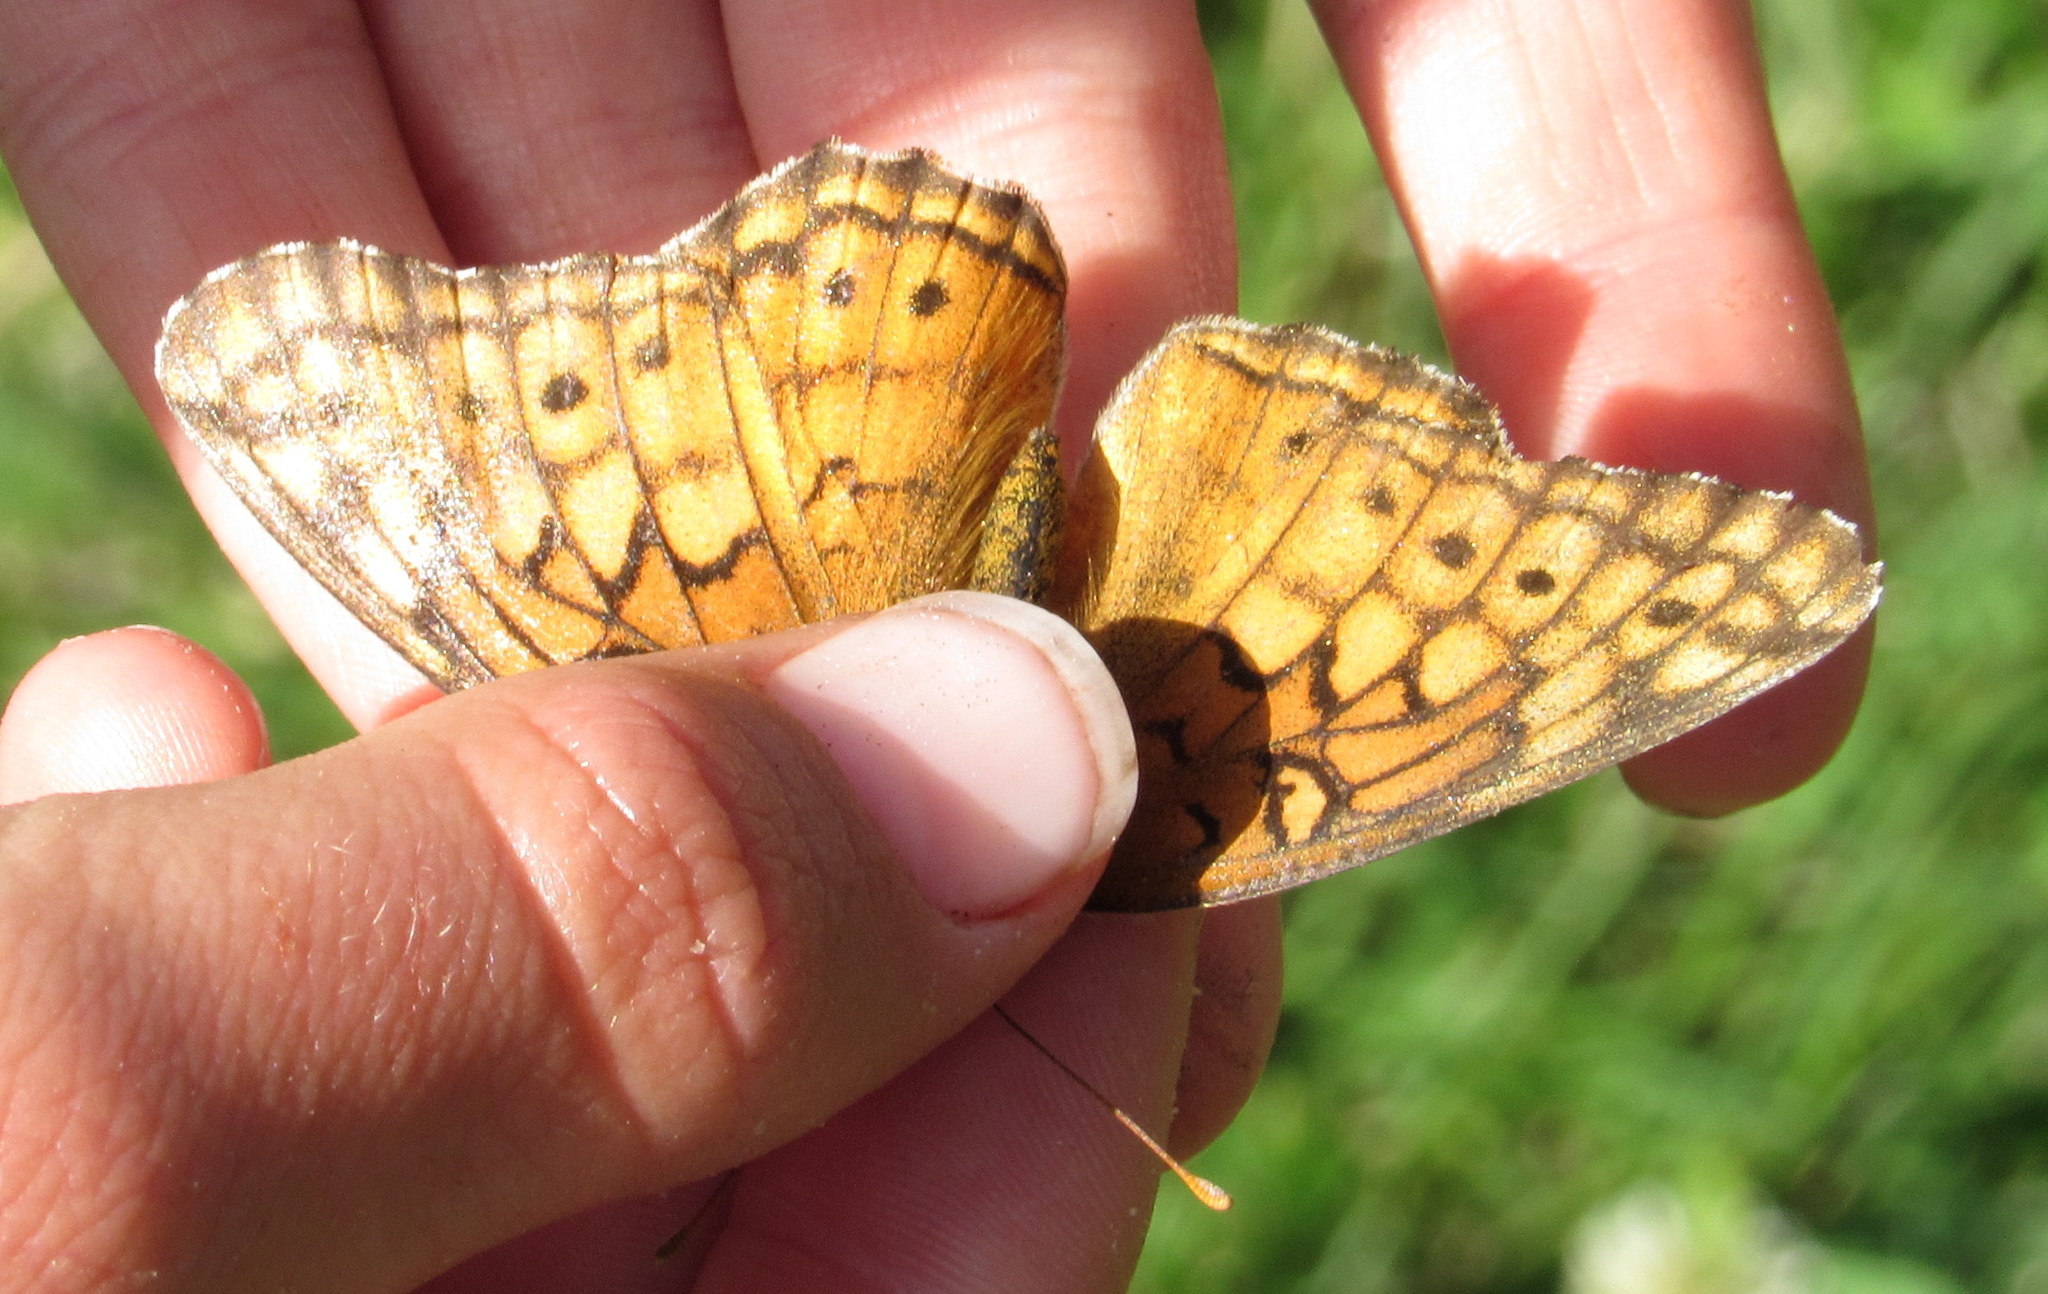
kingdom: Animalia
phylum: Arthropoda
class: Insecta
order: Lepidoptera
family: Nymphalidae
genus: Euptoieta
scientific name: Euptoieta claudia
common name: Variegated fritillary
